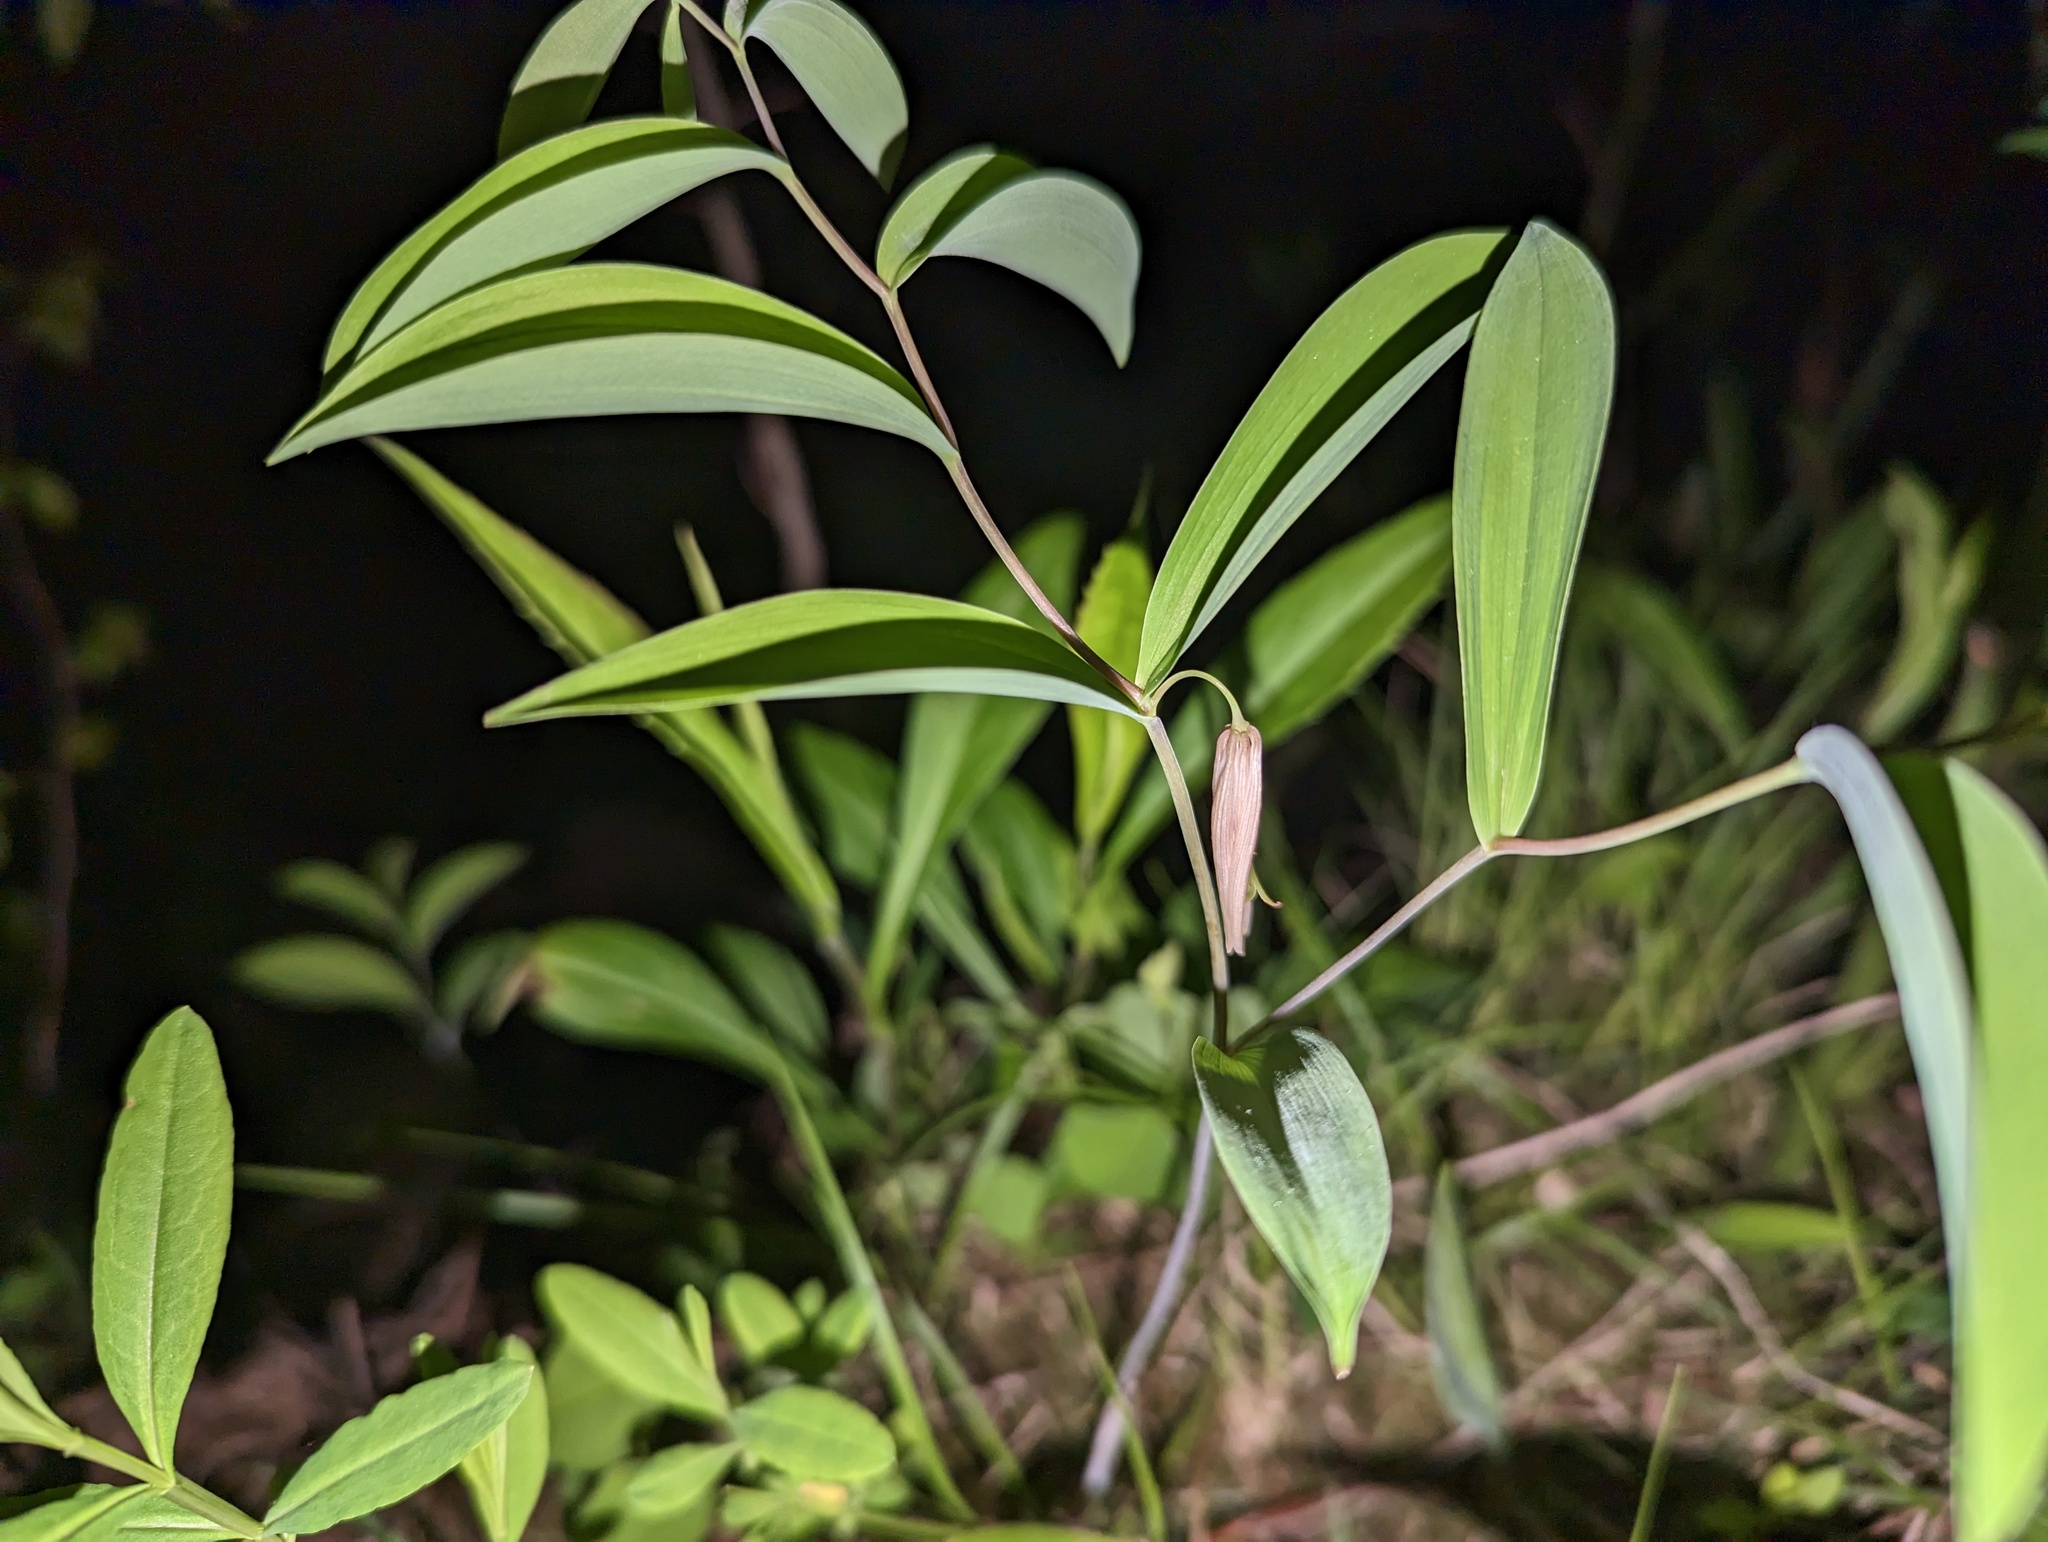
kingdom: Plantae
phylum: Tracheophyta
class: Liliopsida
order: Liliales
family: Colchicaceae
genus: Uvularia
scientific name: Uvularia sessilifolia
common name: Straw-lily
